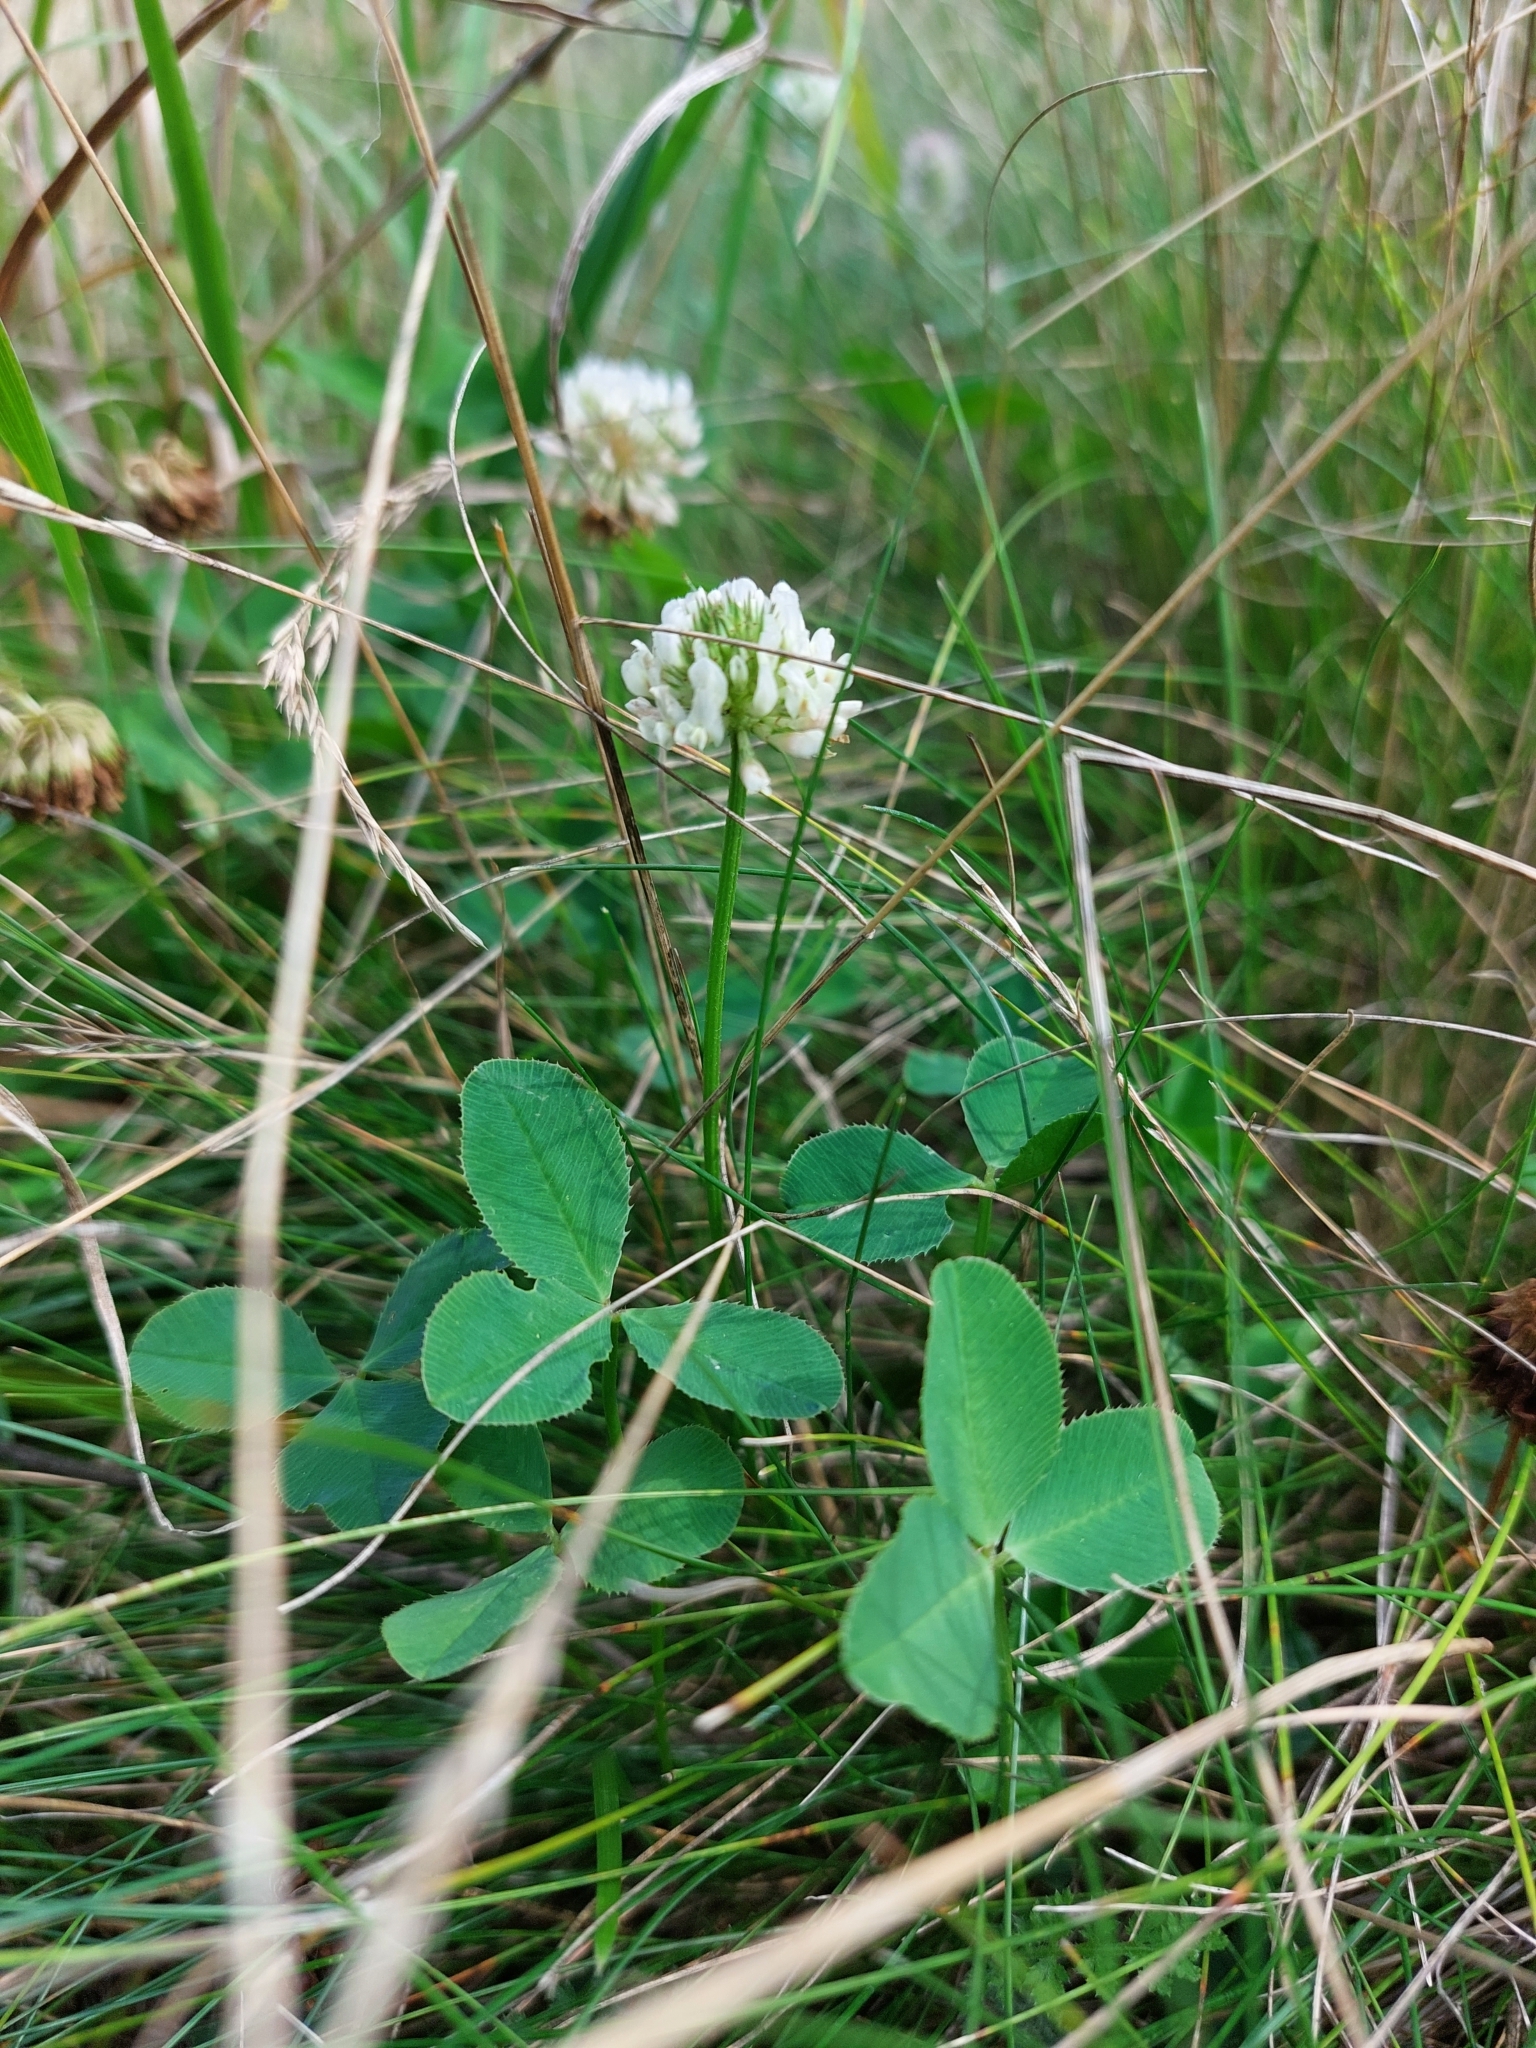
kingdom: Plantae
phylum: Tracheophyta
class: Magnoliopsida
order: Fabales
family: Fabaceae
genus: Trifolium
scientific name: Trifolium repens
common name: White clover
